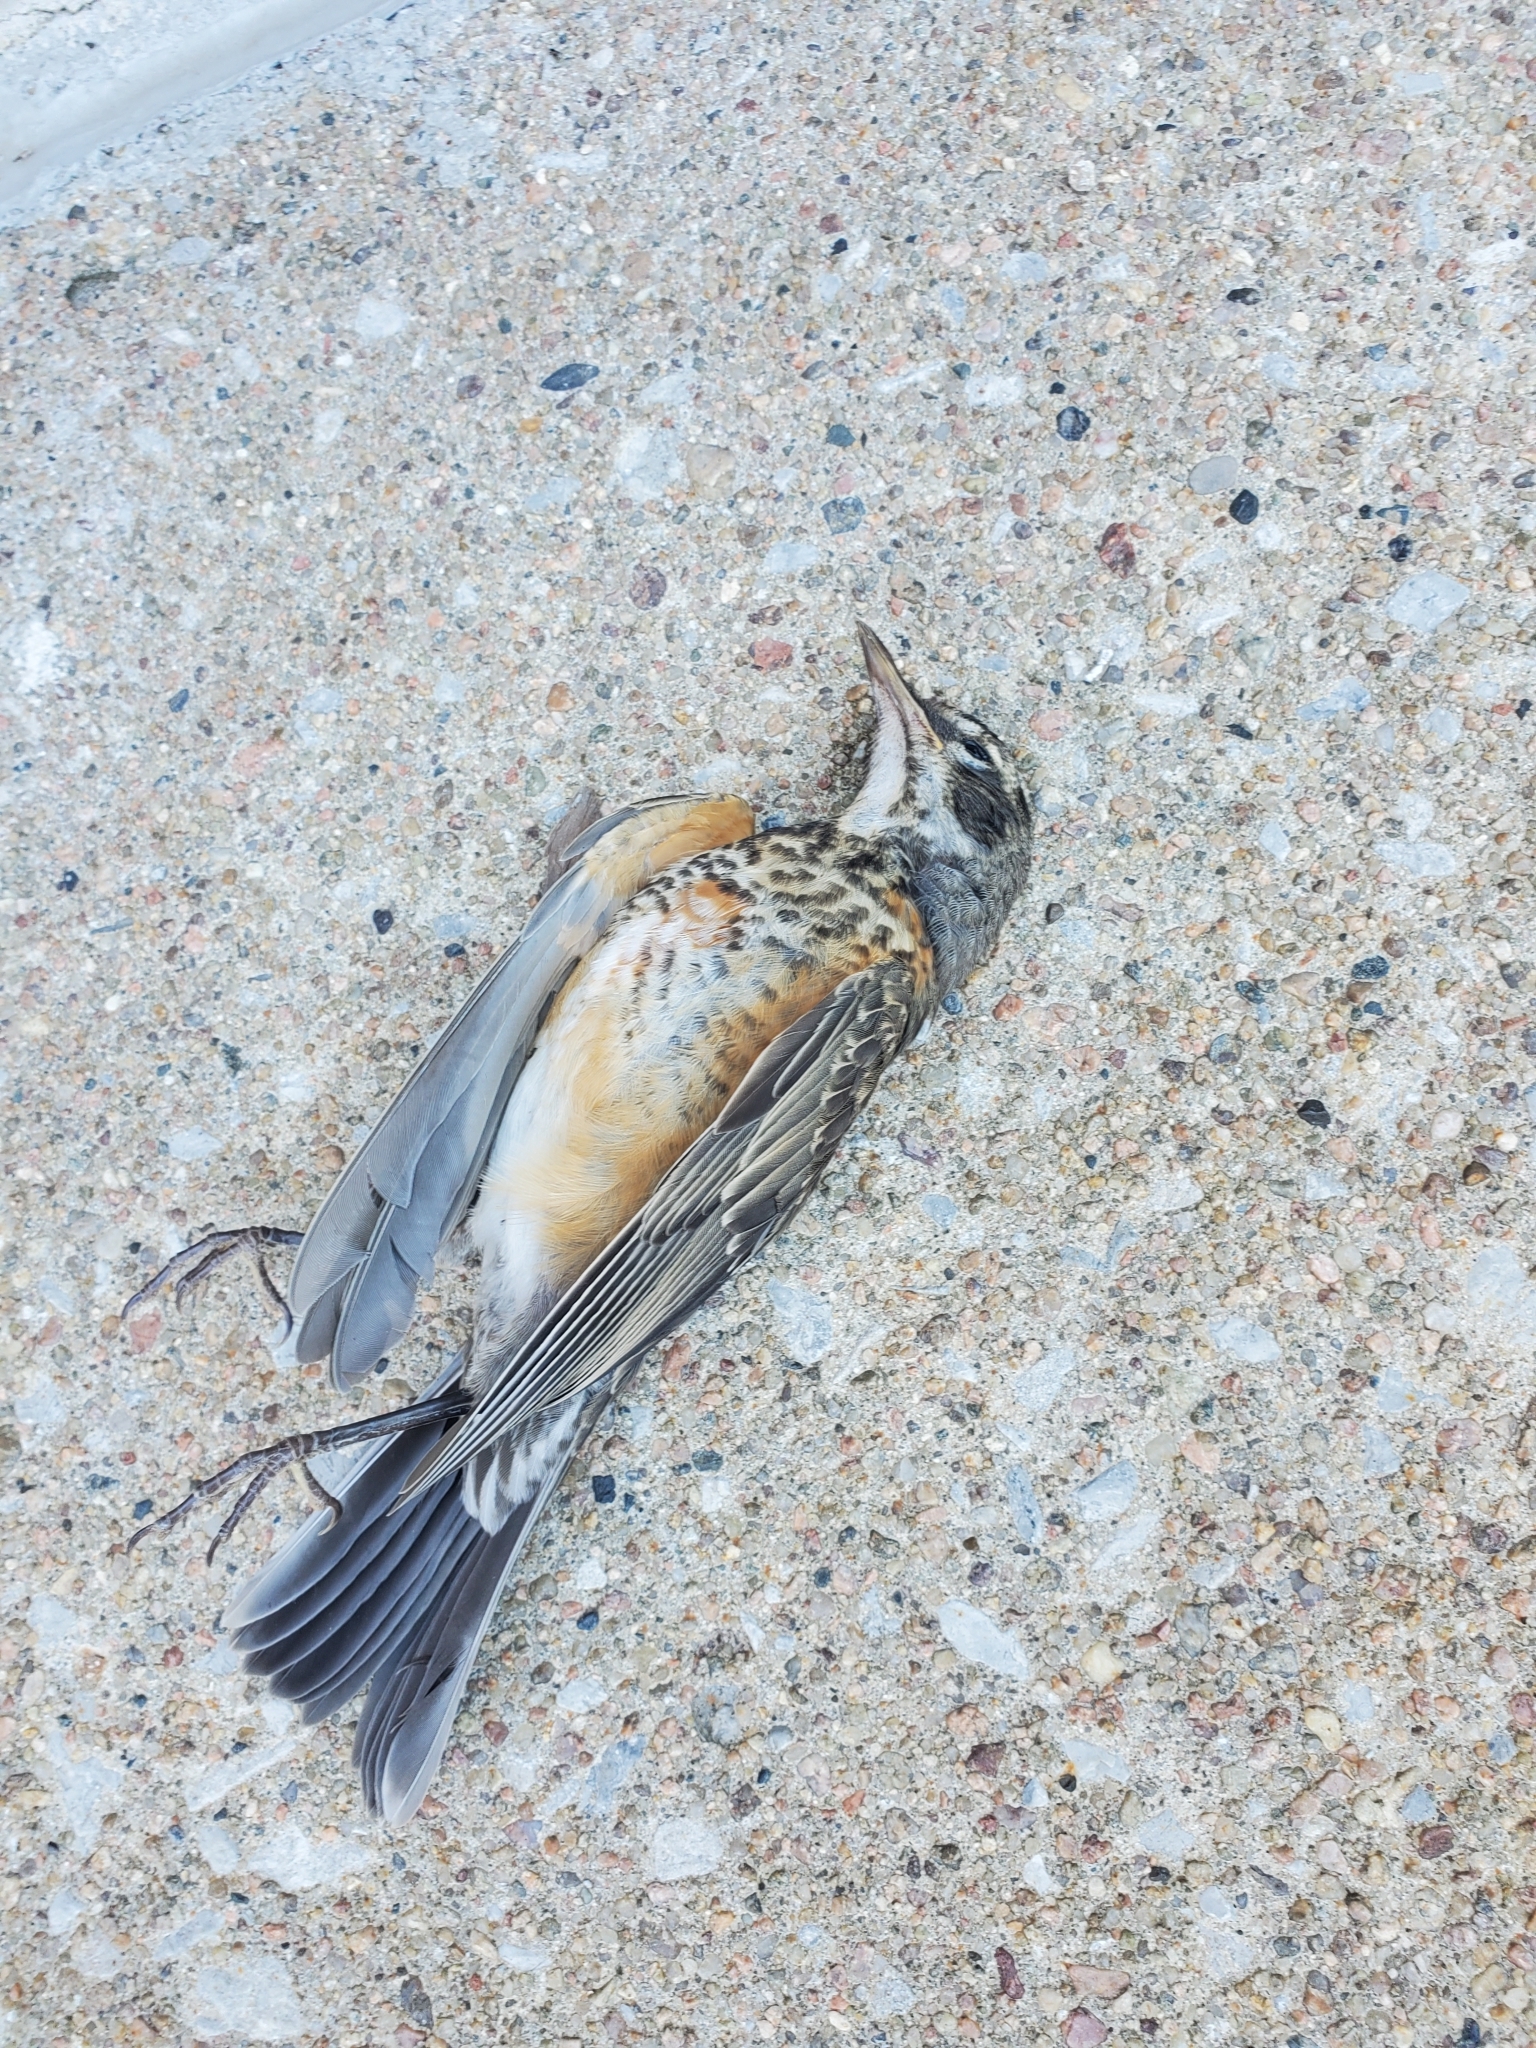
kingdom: Animalia
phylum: Chordata
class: Aves
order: Passeriformes
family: Turdidae
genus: Turdus
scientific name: Turdus migratorius
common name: American robin
